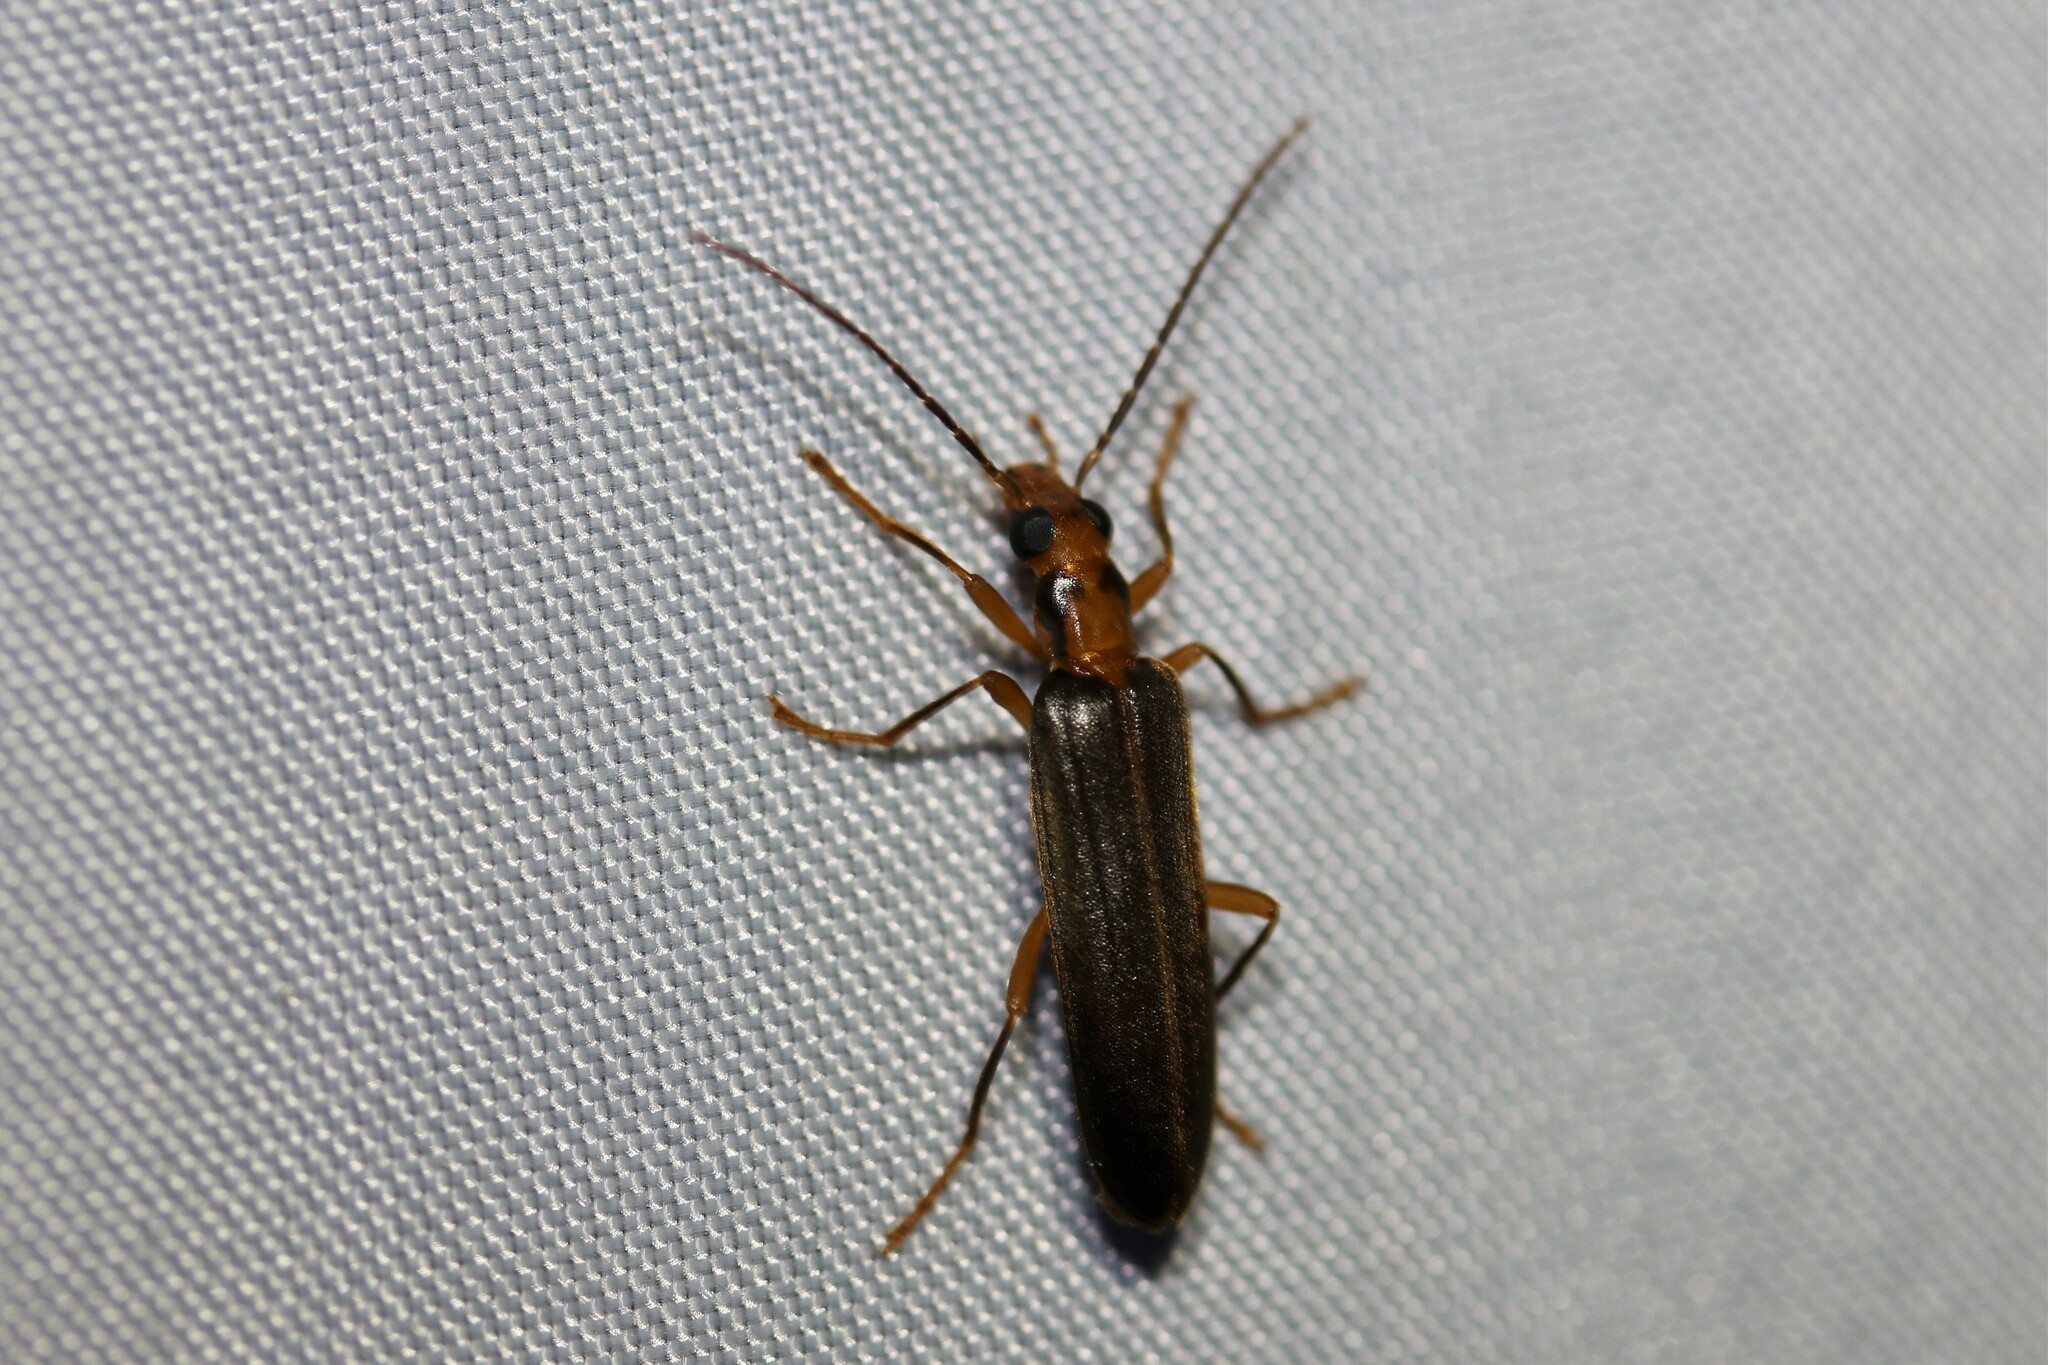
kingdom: Animalia
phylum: Arthropoda
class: Insecta
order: Coleoptera
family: Oedemeridae
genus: Nacerdes
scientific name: Nacerdes carniolica
